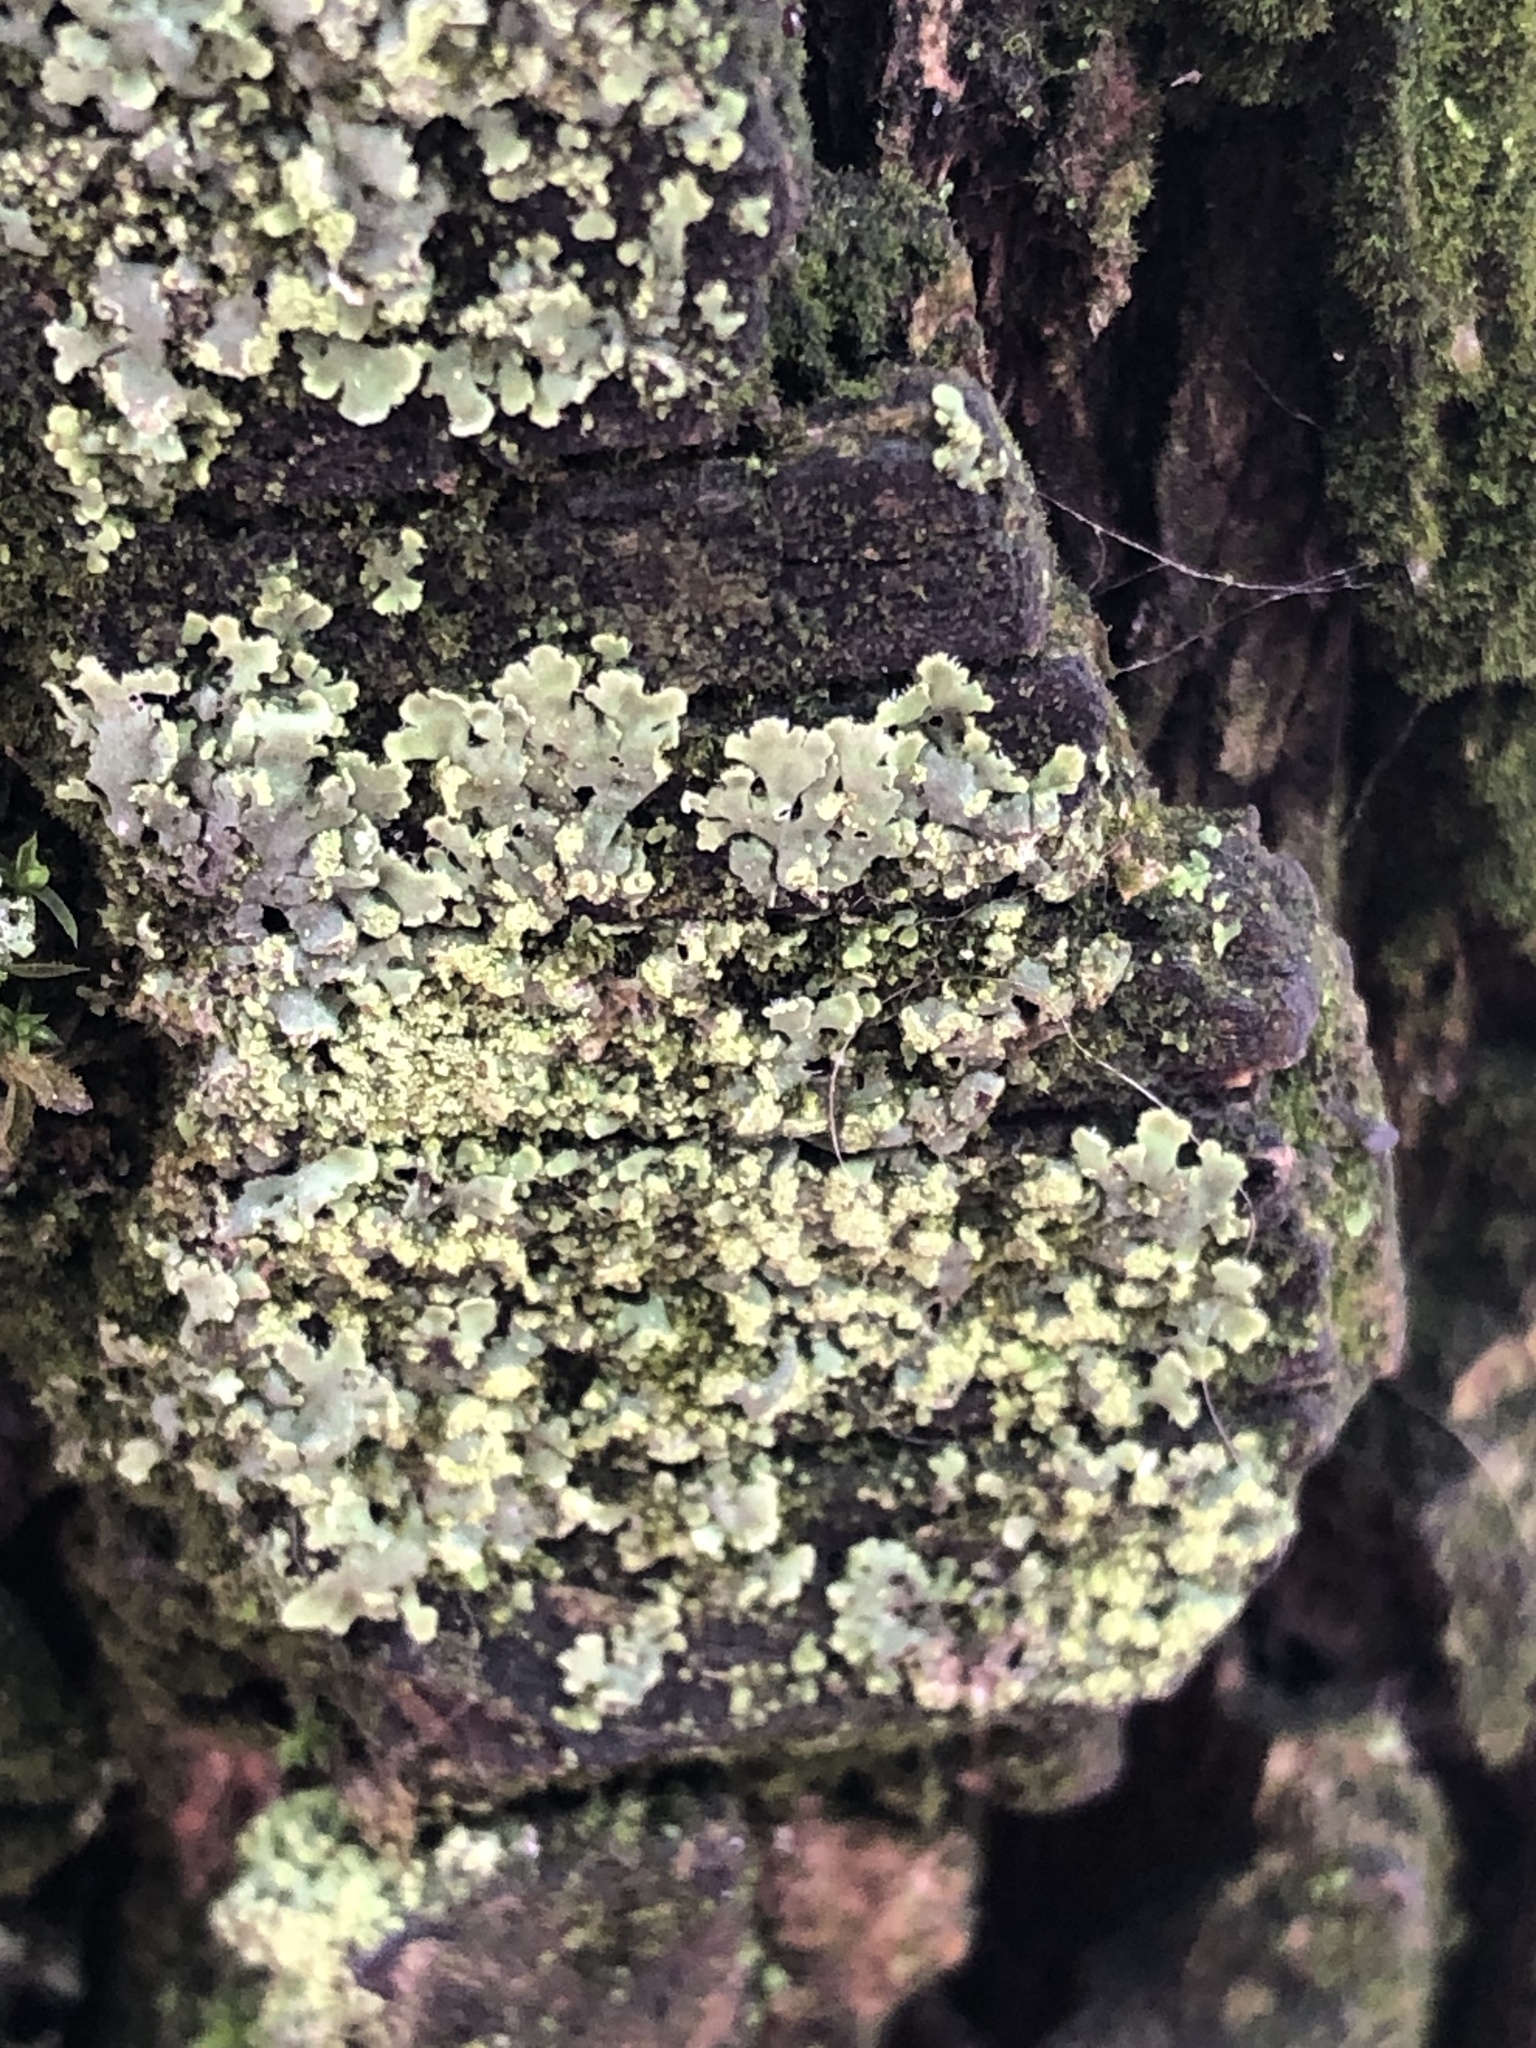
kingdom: Fungi
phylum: Ascomycota
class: Lecanoromycetes
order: Caliciales
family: Physciaceae
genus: Physciella
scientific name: Physciella chloantha
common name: Cryptic rosette lichen
